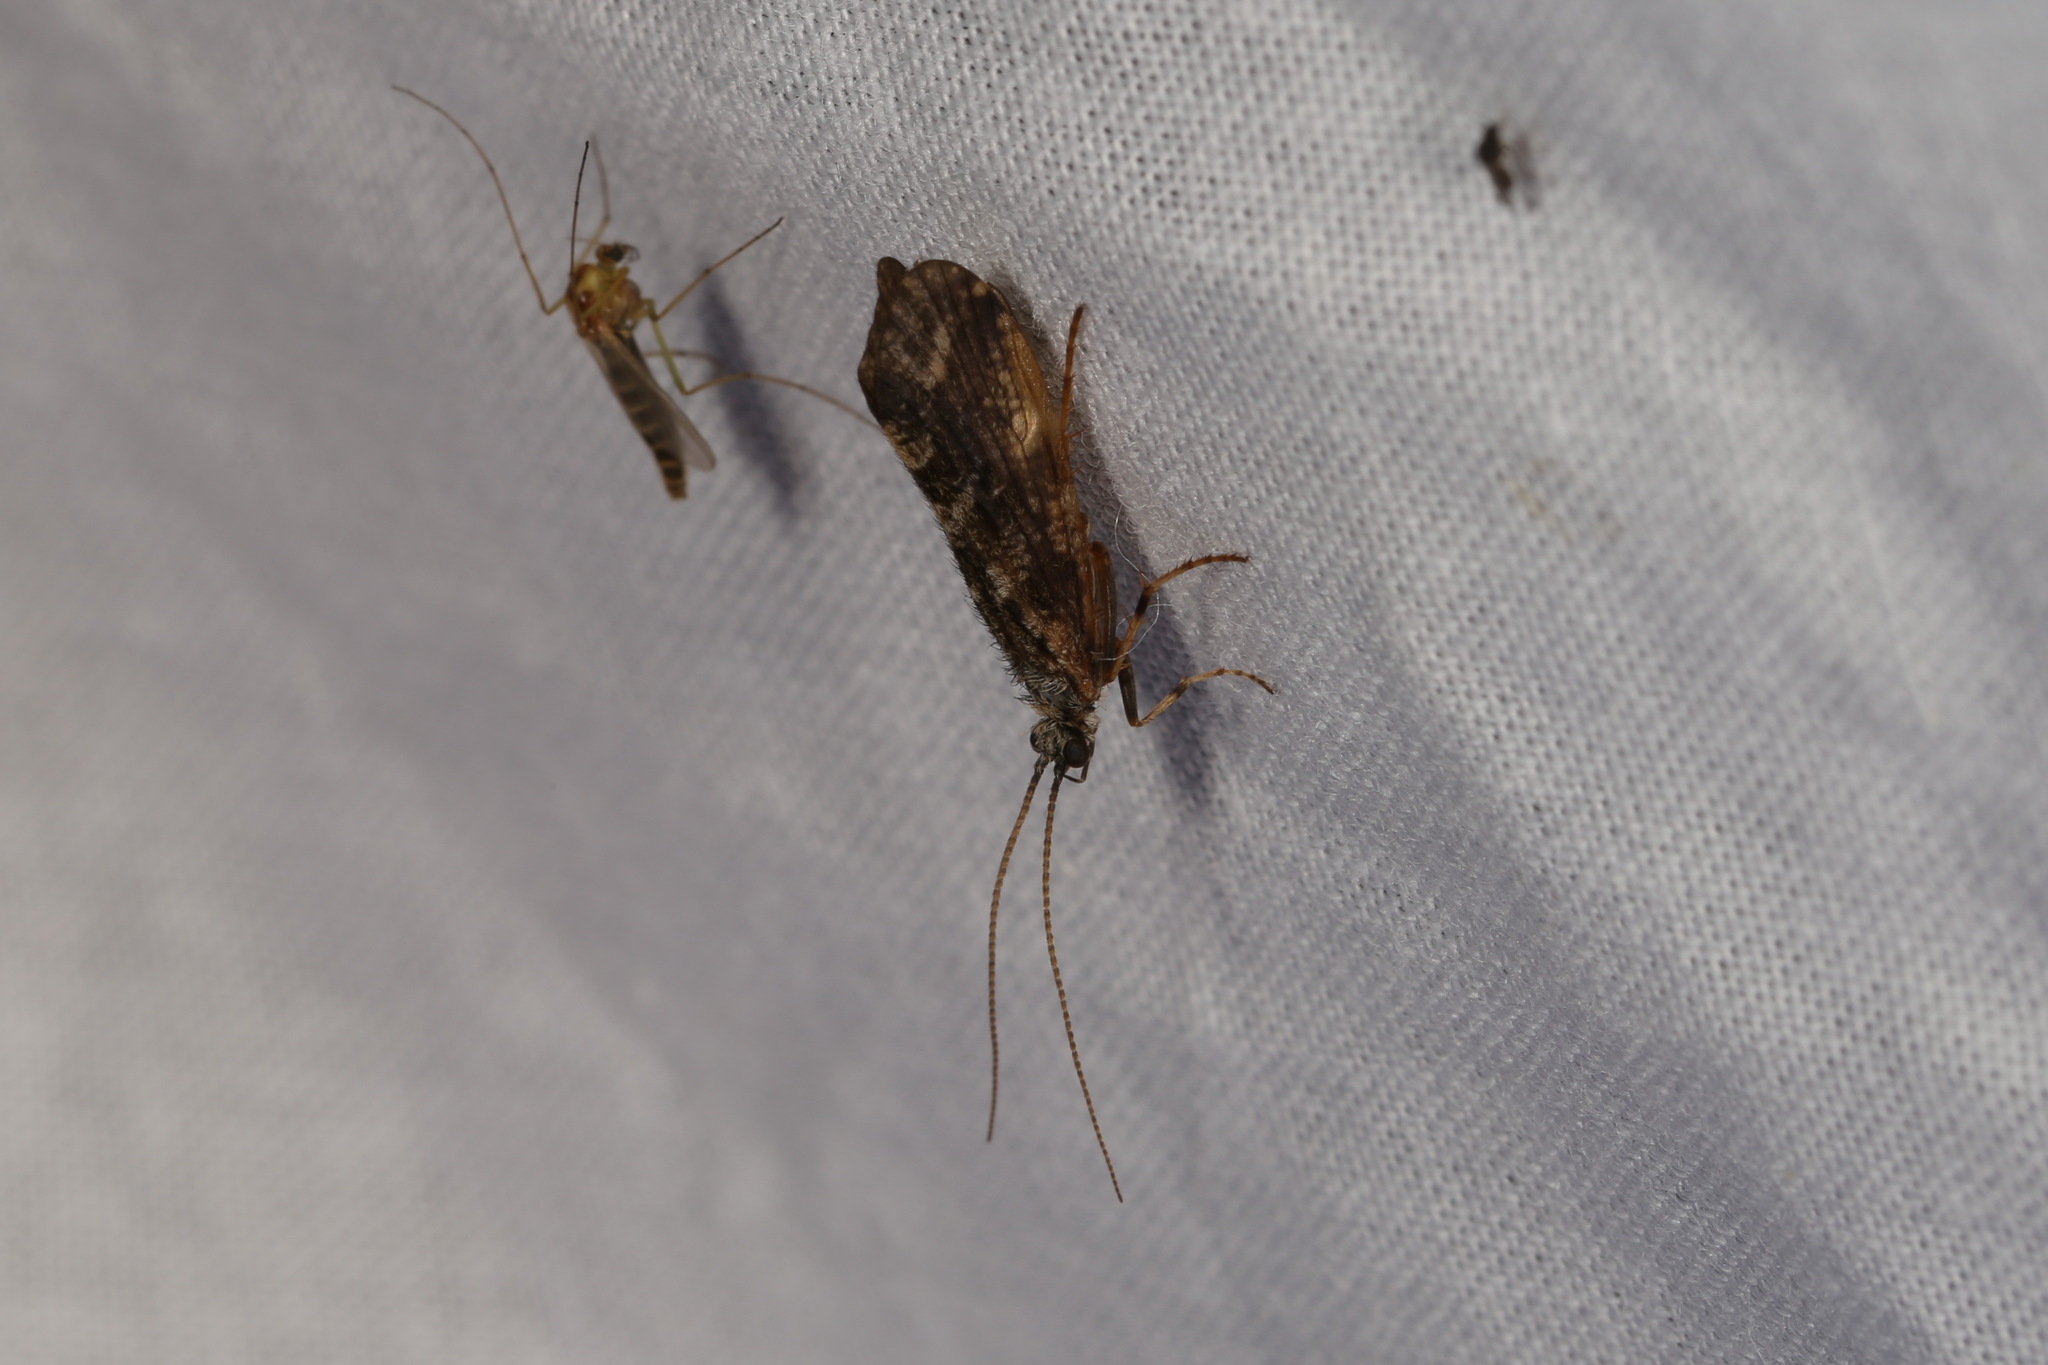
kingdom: Animalia
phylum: Arthropoda
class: Insecta
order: Trichoptera
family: Phryganeidae
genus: Trichostegia
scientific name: Trichostegia minor
